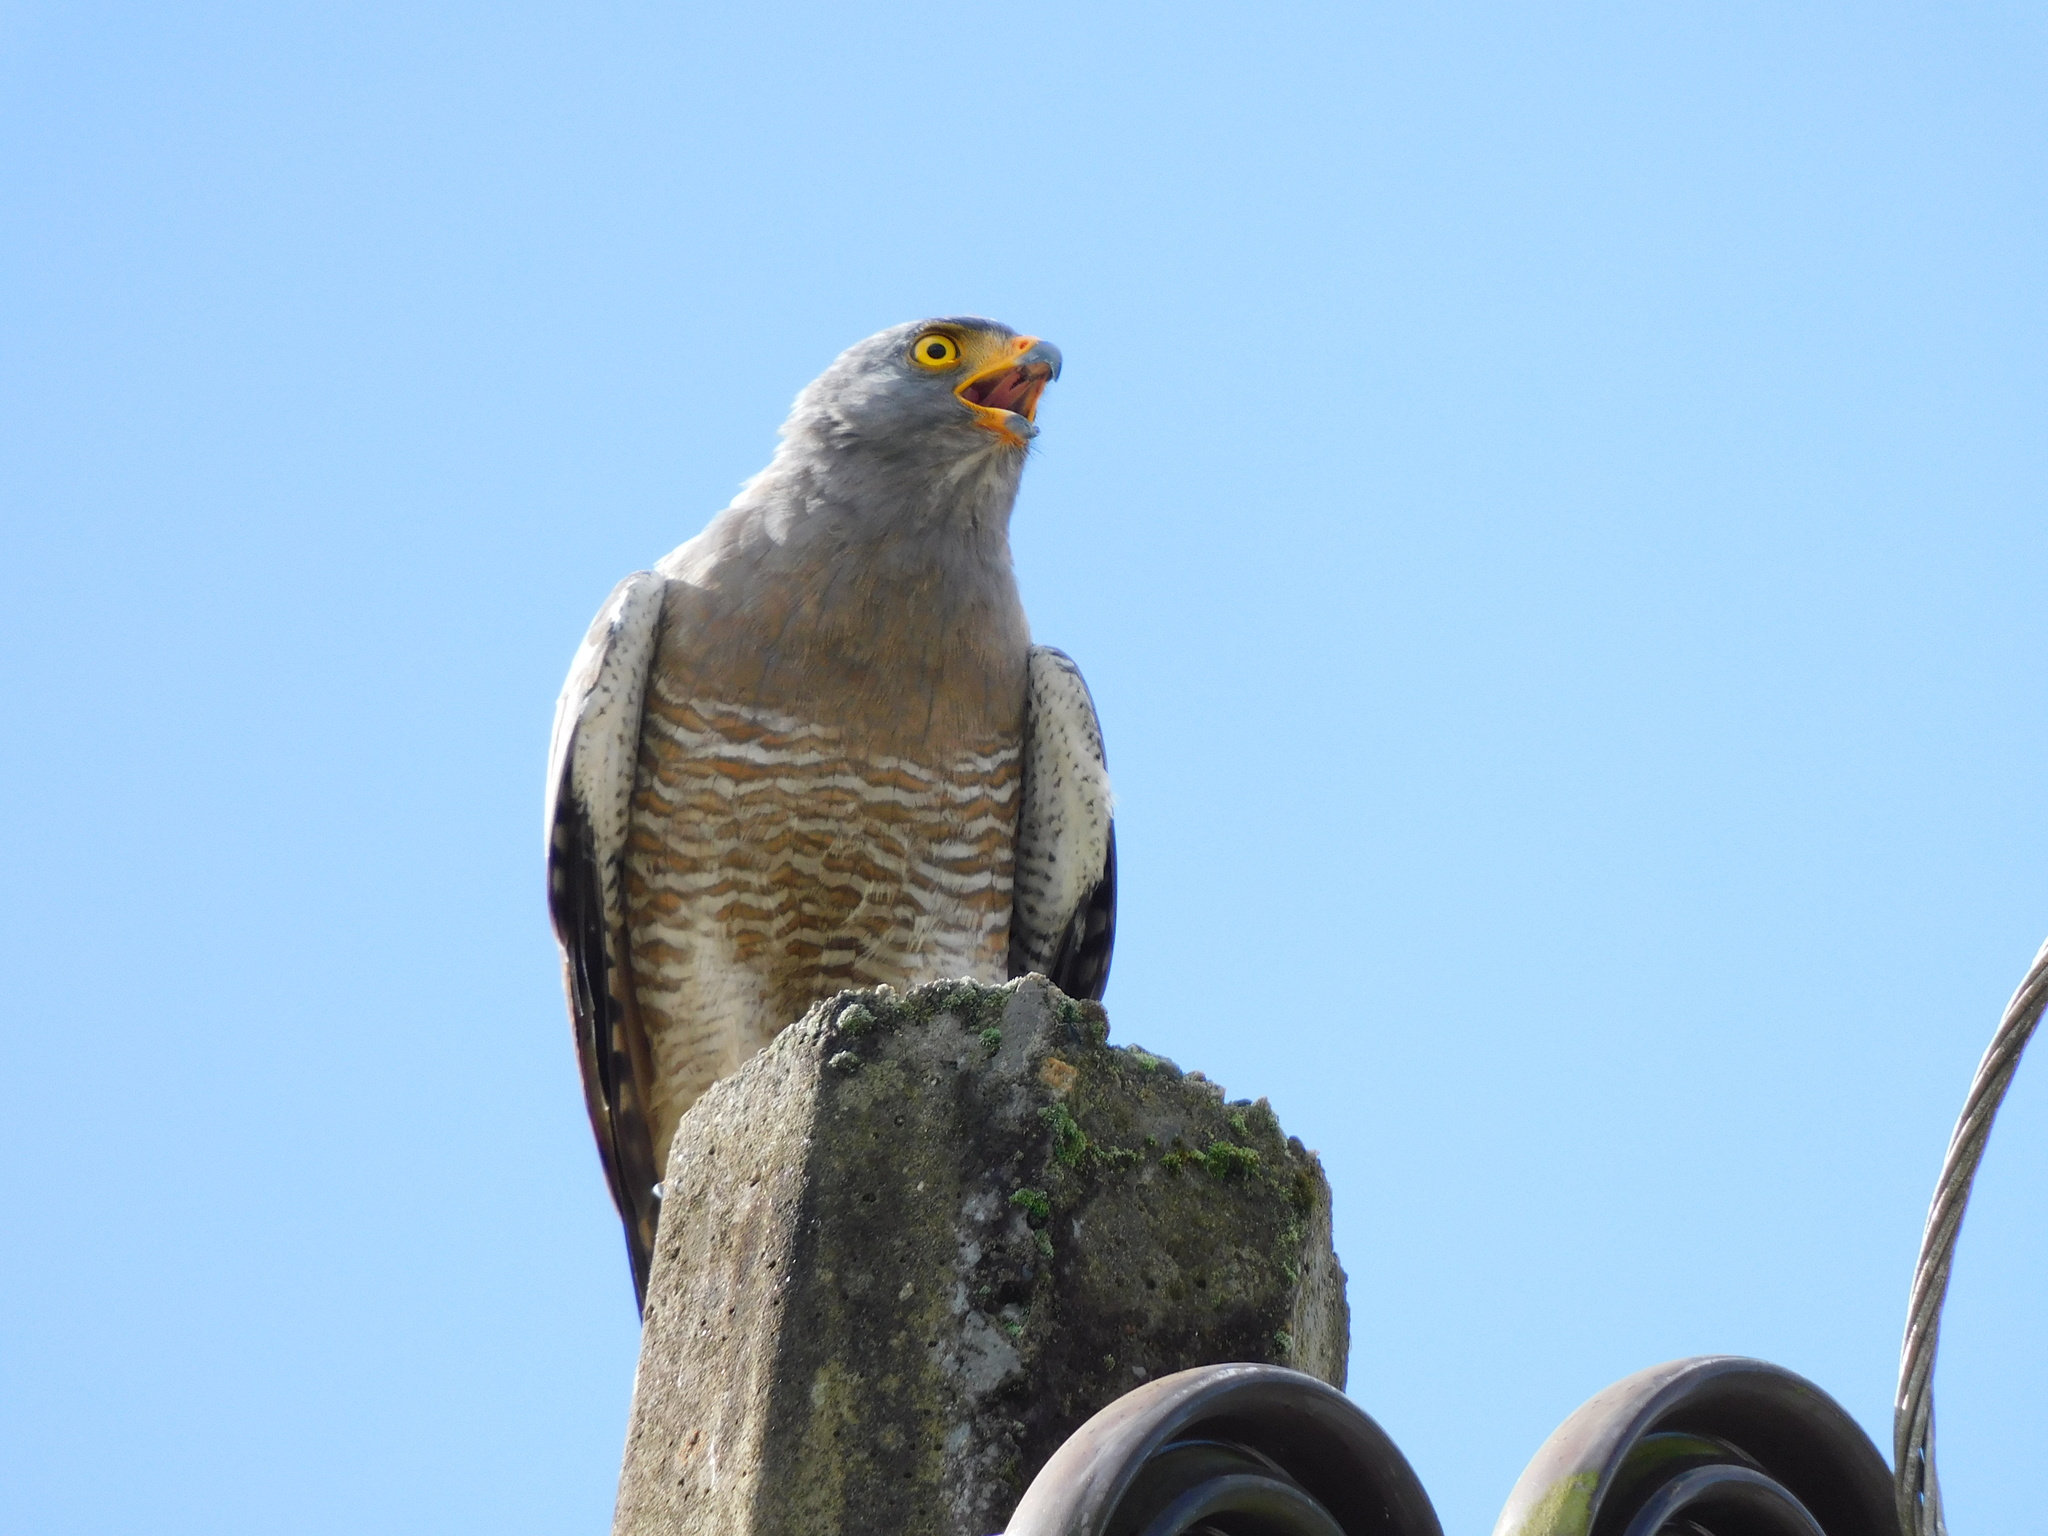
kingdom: Animalia
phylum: Chordata
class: Aves
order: Accipitriformes
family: Accipitridae
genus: Rupornis
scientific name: Rupornis magnirostris
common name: Roadside hawk
